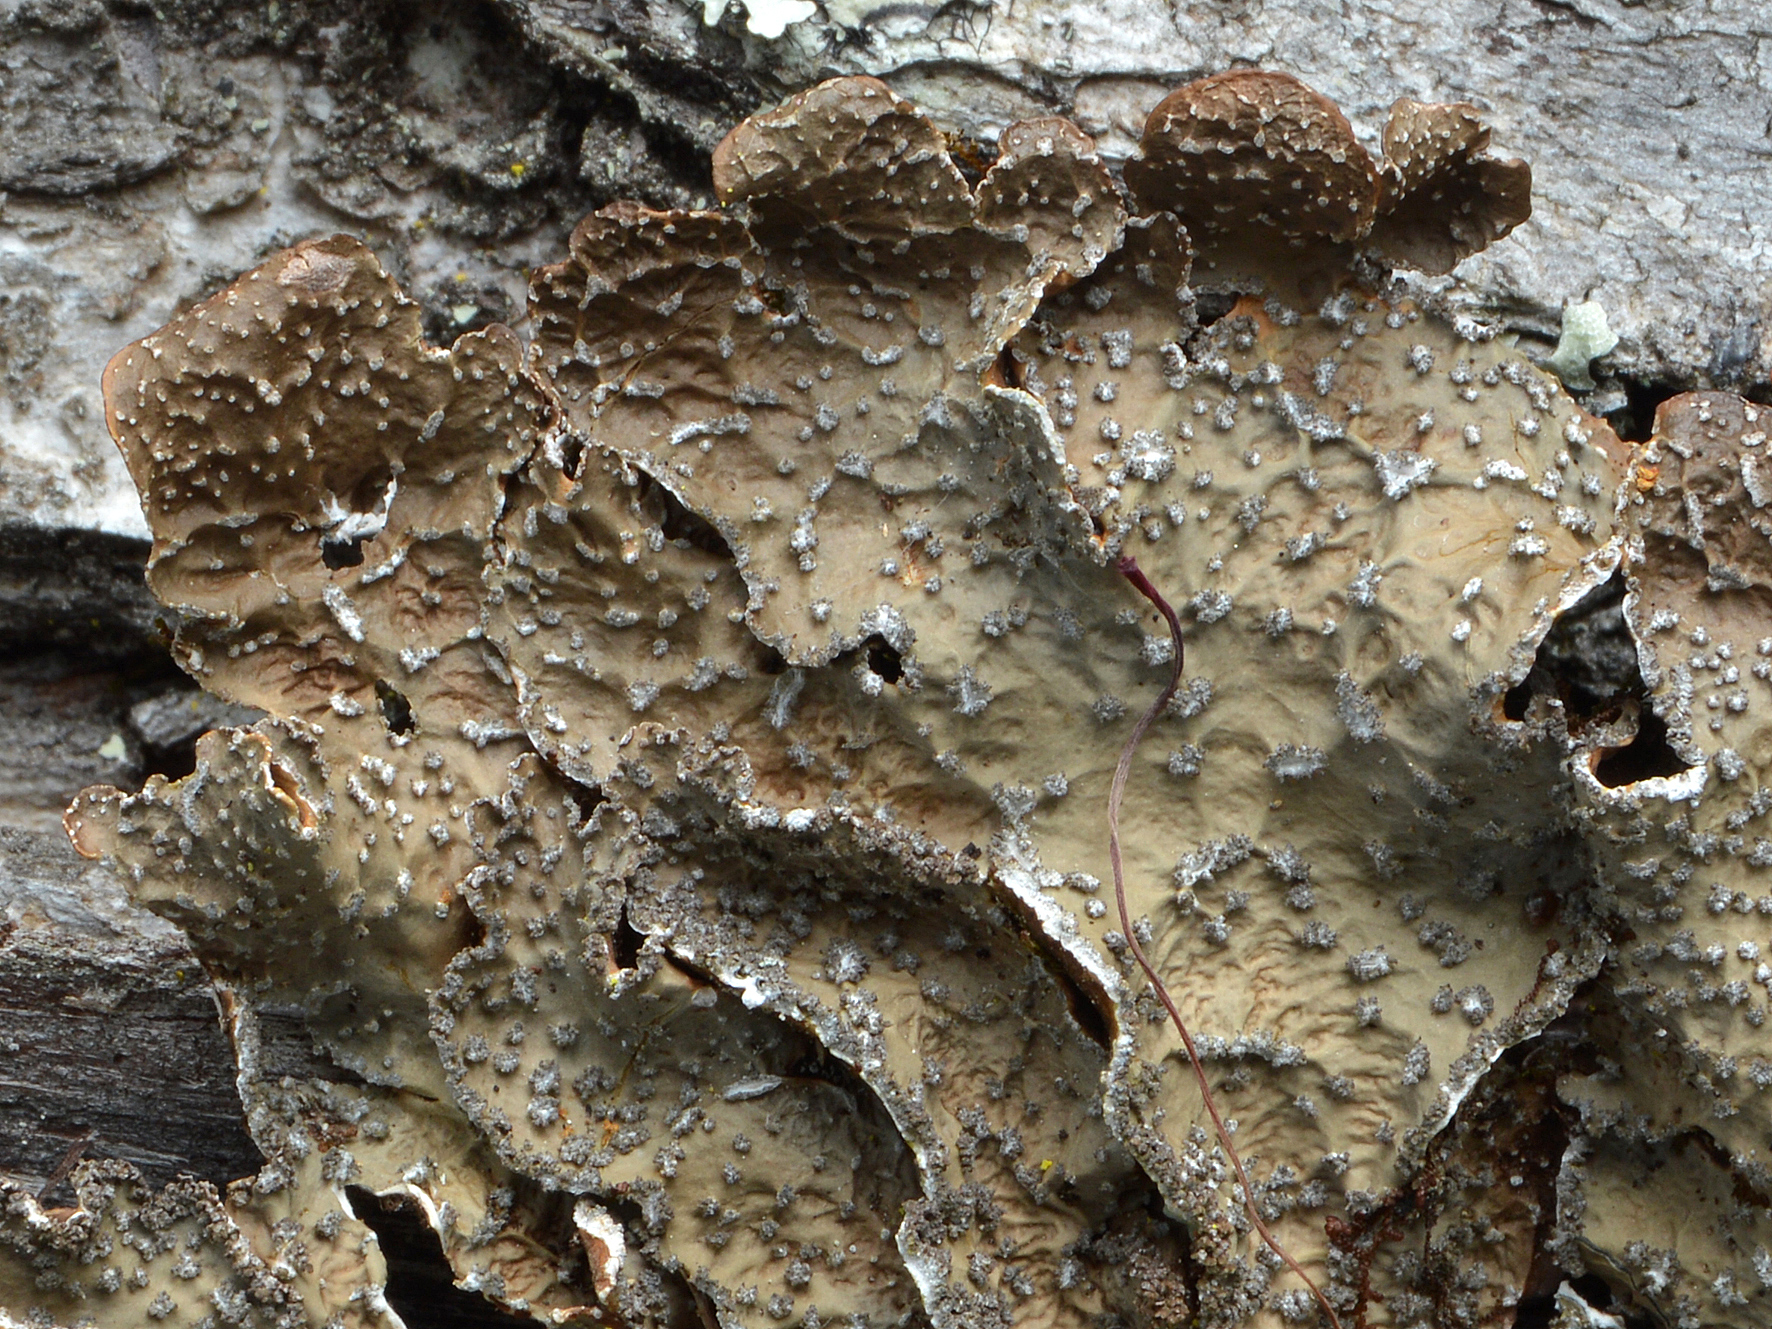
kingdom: Fungi
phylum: Ascomycota
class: Lecanoromycetes
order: Peltigerales
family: Lobariaceae
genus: Pseudocyphellaria
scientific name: Pseudocyphellaria haywardiorum
